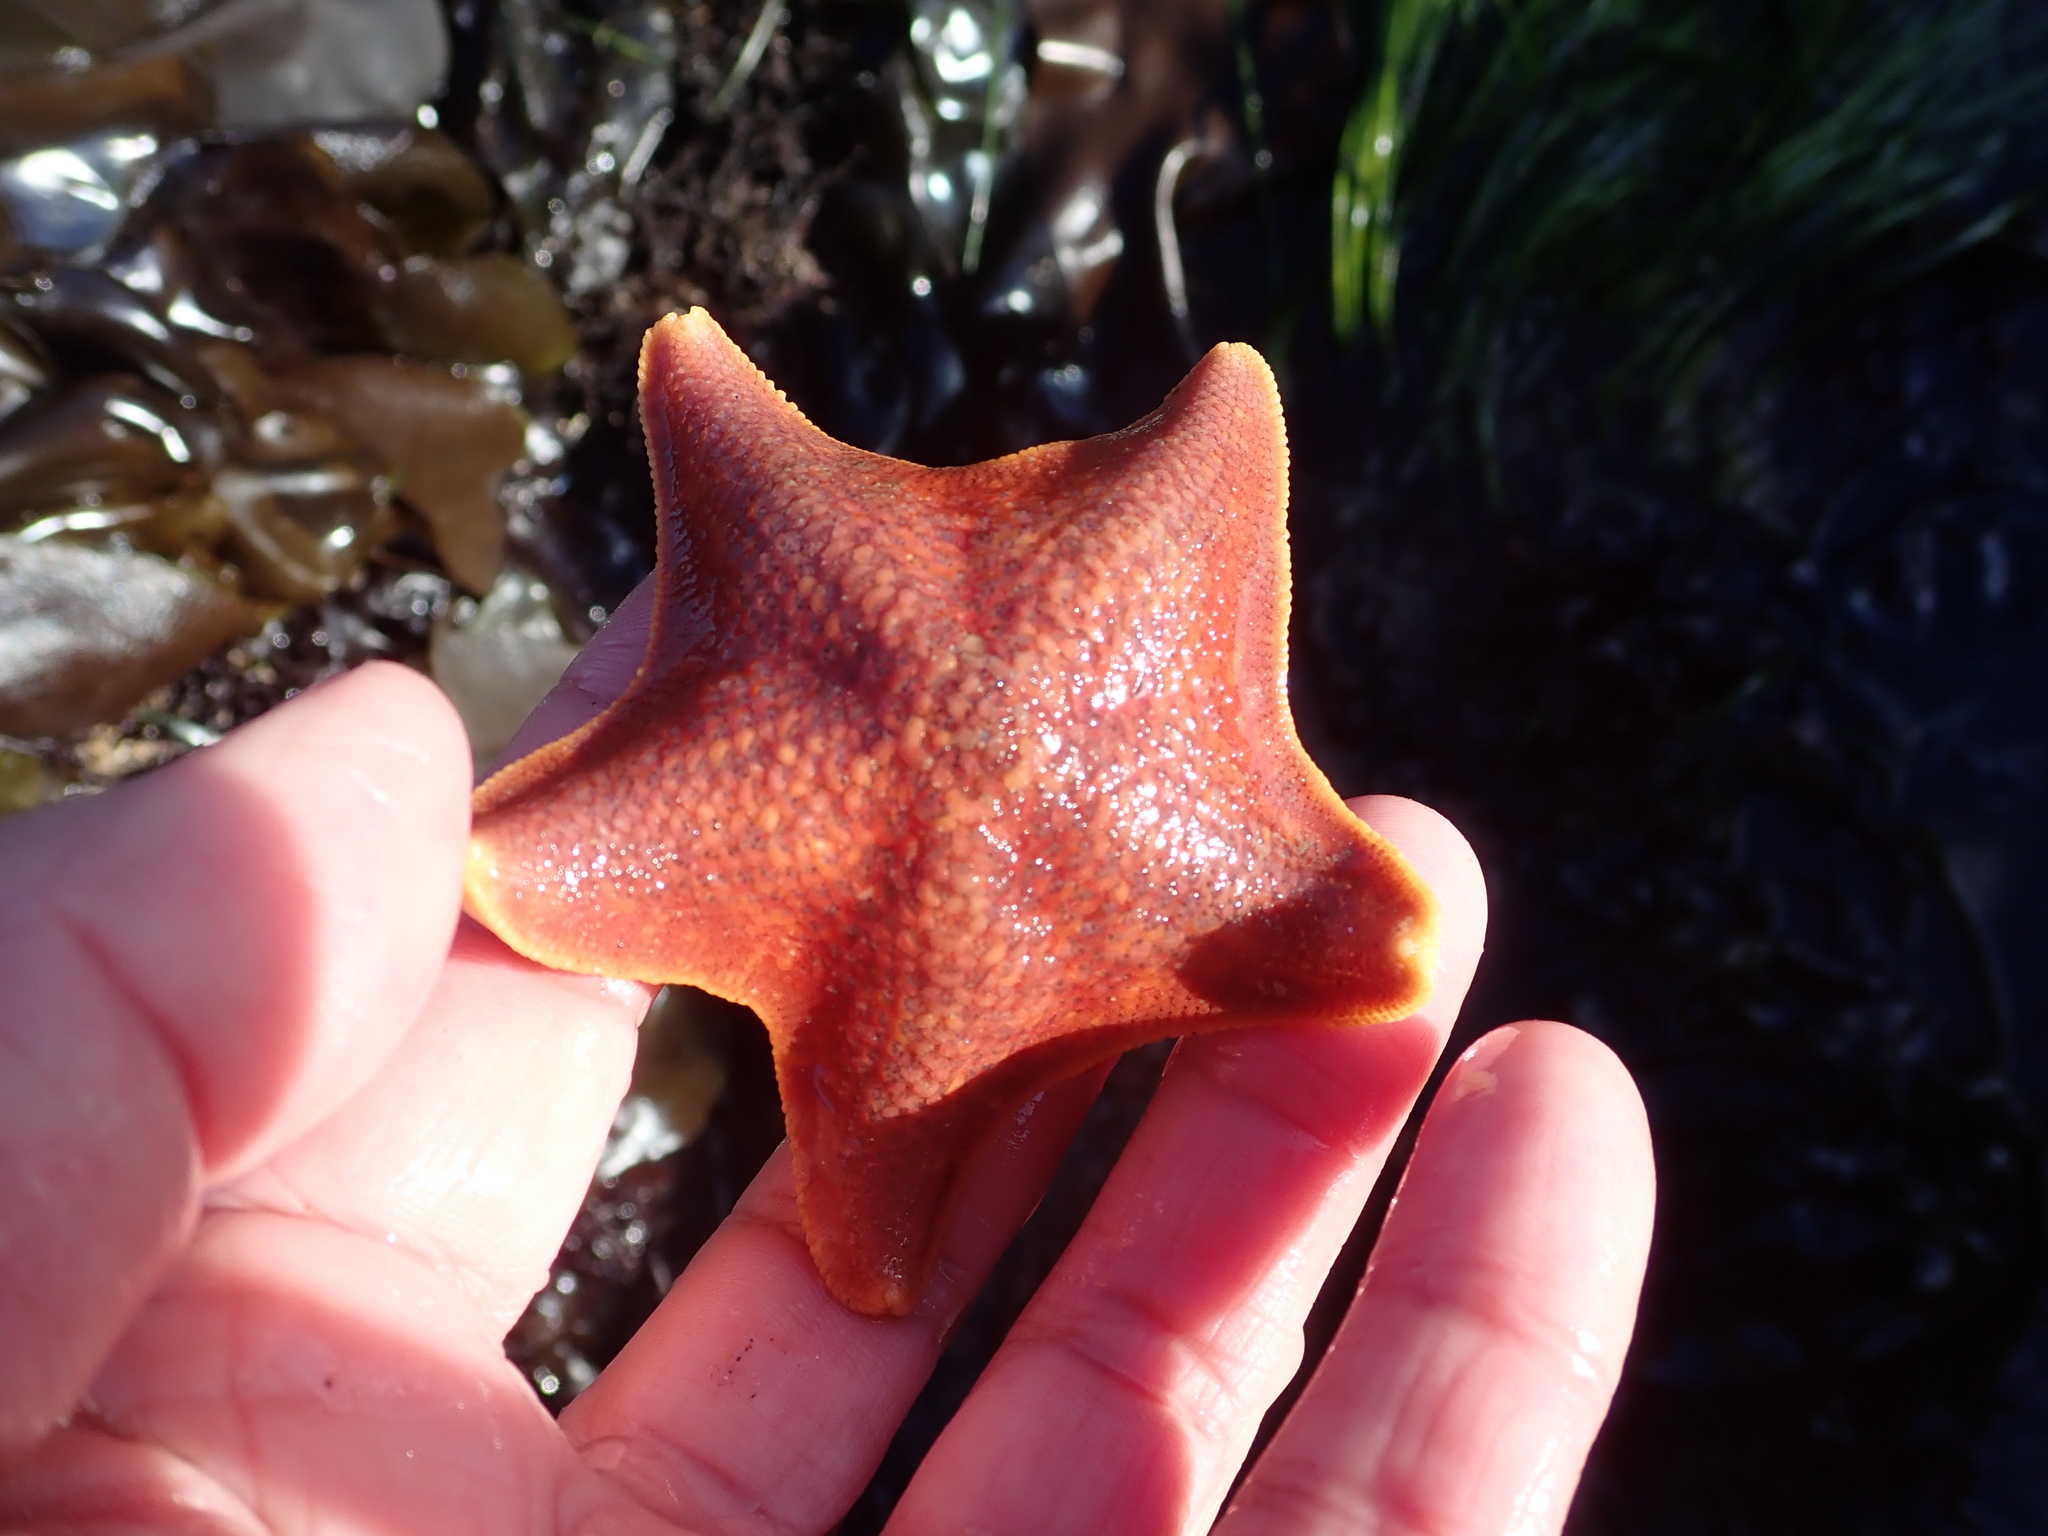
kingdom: Animalia
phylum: Echinodermata
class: Asteroidea
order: Valvatida
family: Asterinidae
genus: Patiria
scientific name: Patiria miniata
